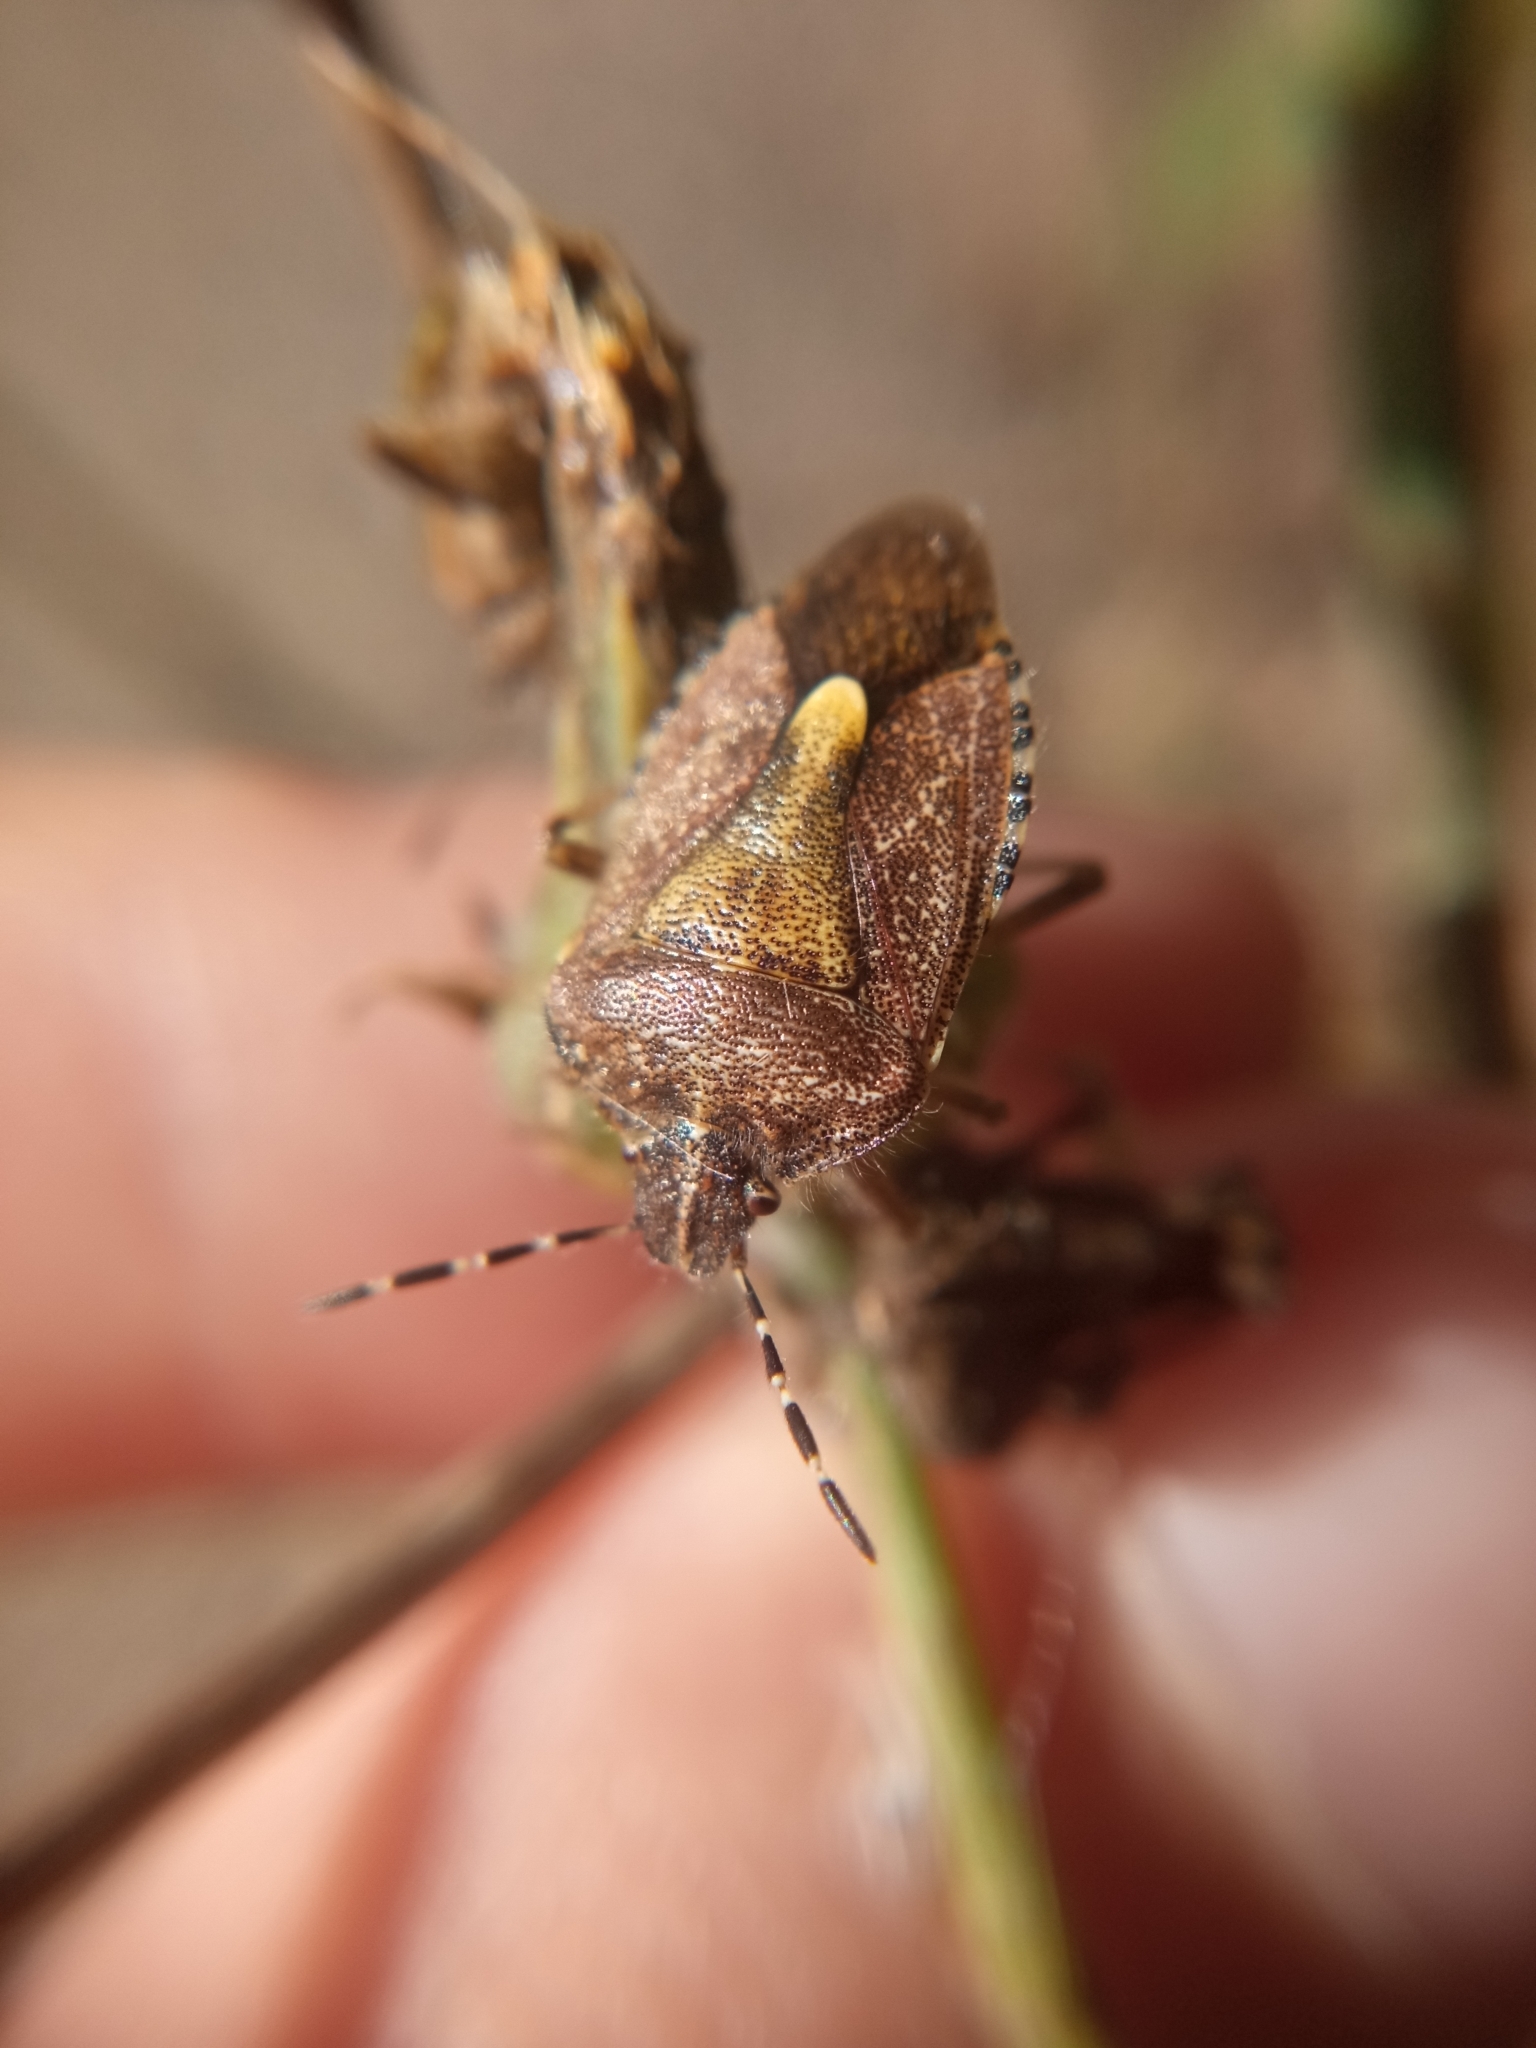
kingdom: Animalia
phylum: Arthropoda
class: Insecta
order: Hemiptera
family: Pentatomidae
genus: Dolycoris
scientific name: Dolycoris baccarum
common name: Sloe bug
